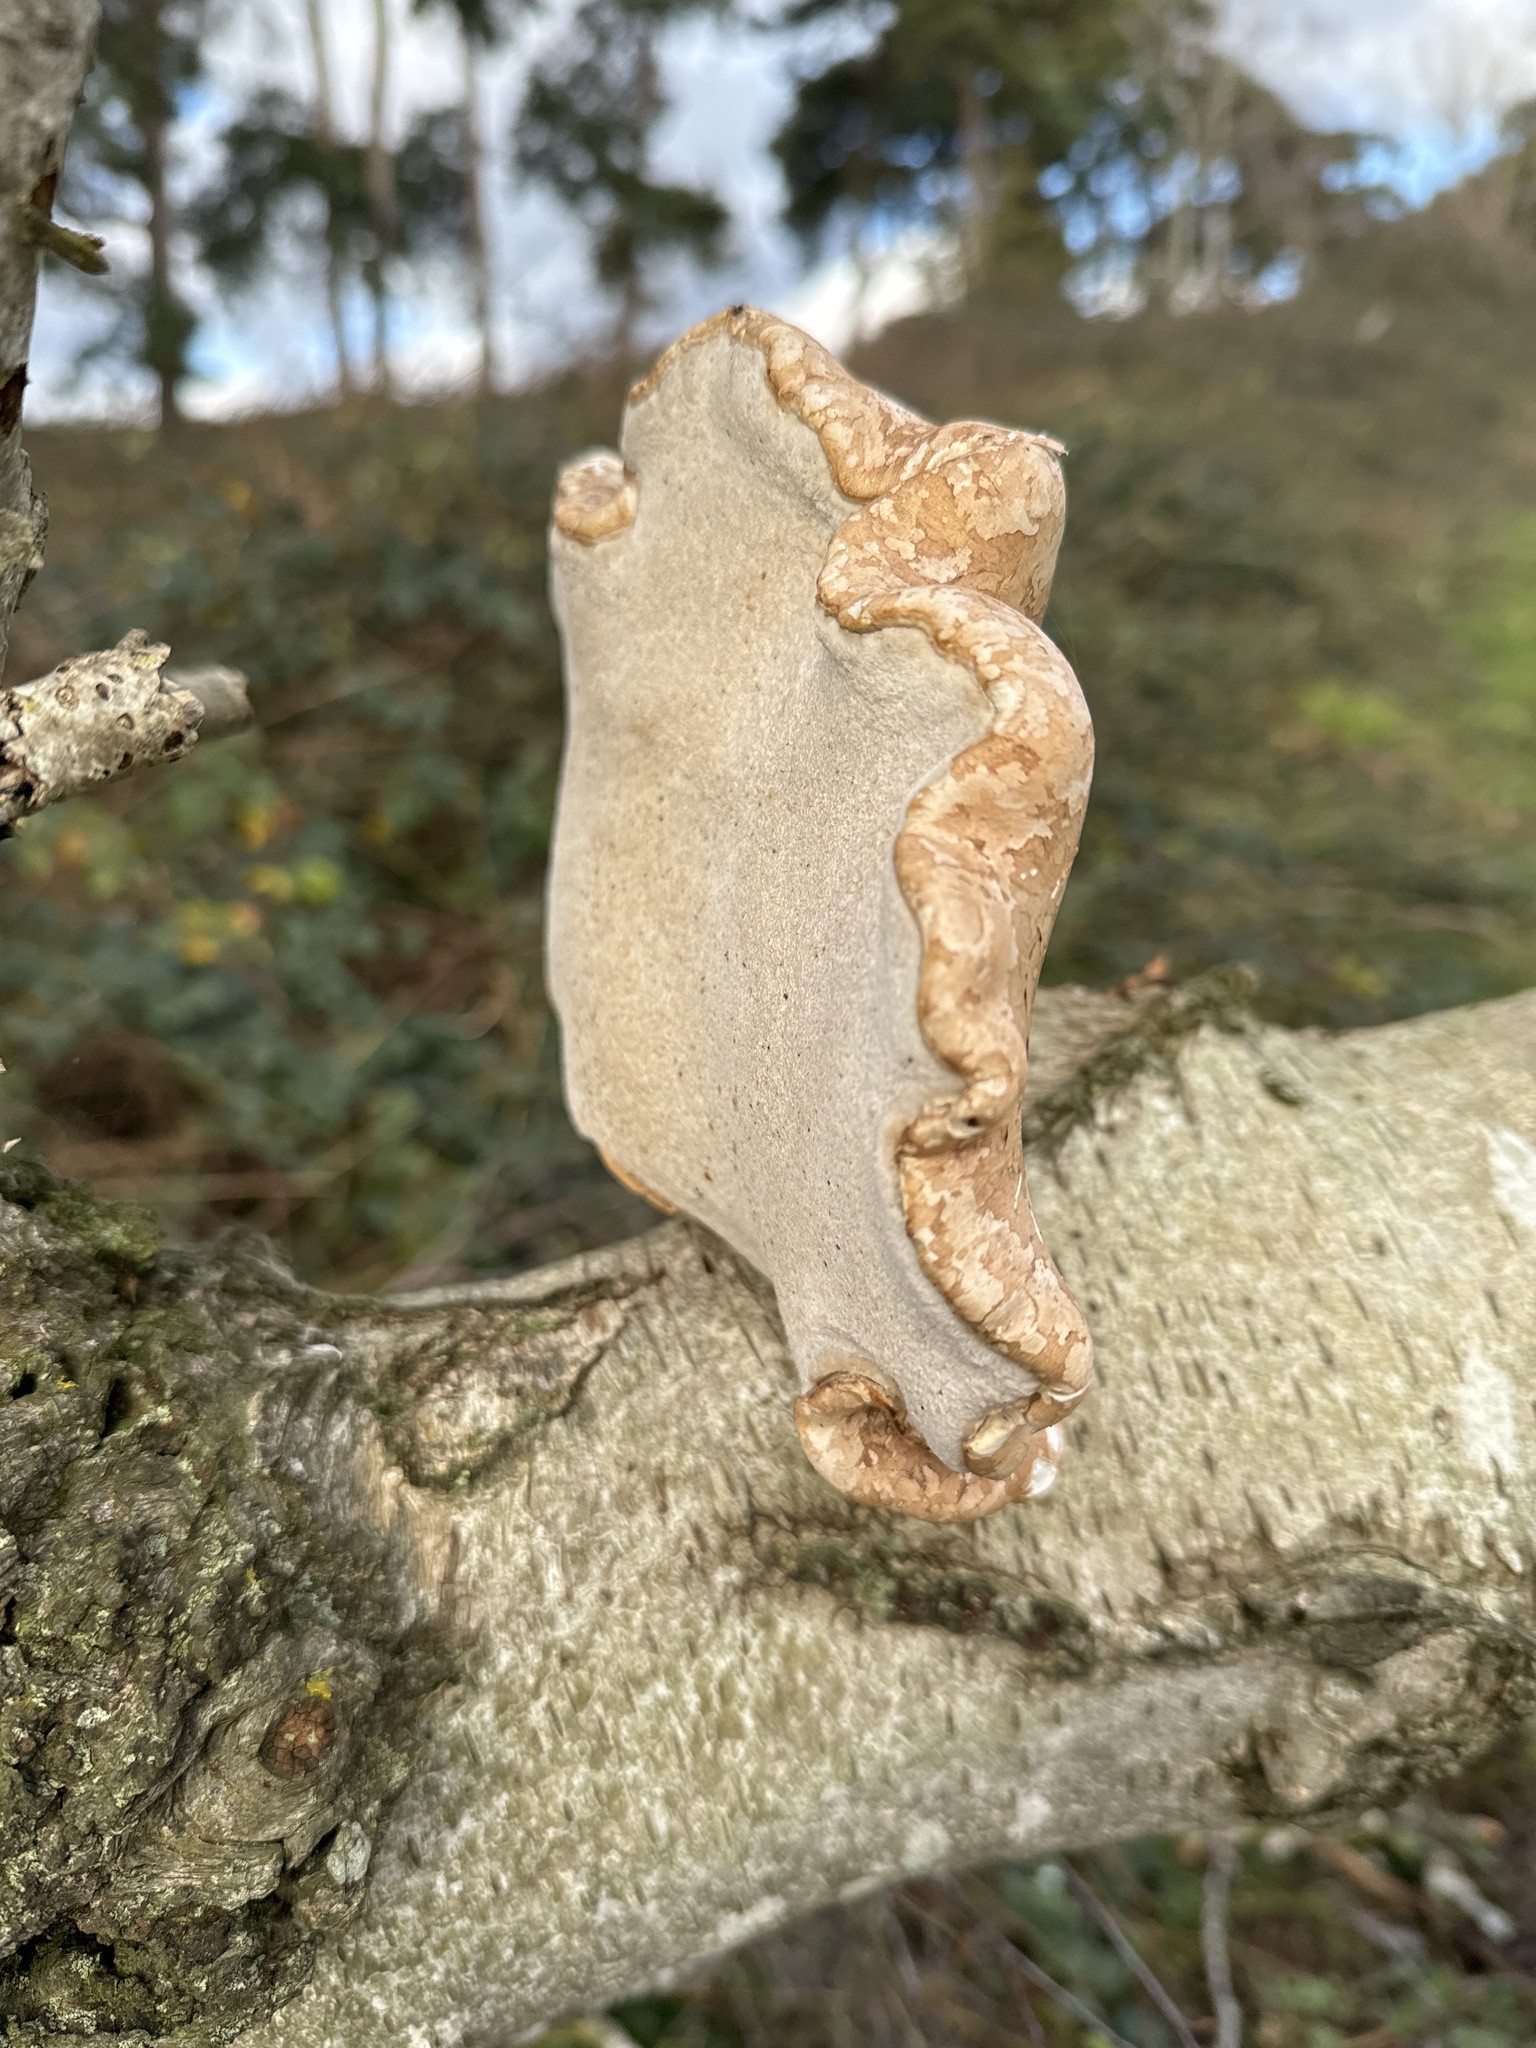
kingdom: Fungi
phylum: Basidiomycota
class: Agaricomycetes
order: Polyporales
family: Fomitopsidaceae
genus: Fomitopsis
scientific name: Fomitopsis betulina
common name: Birch polypore
